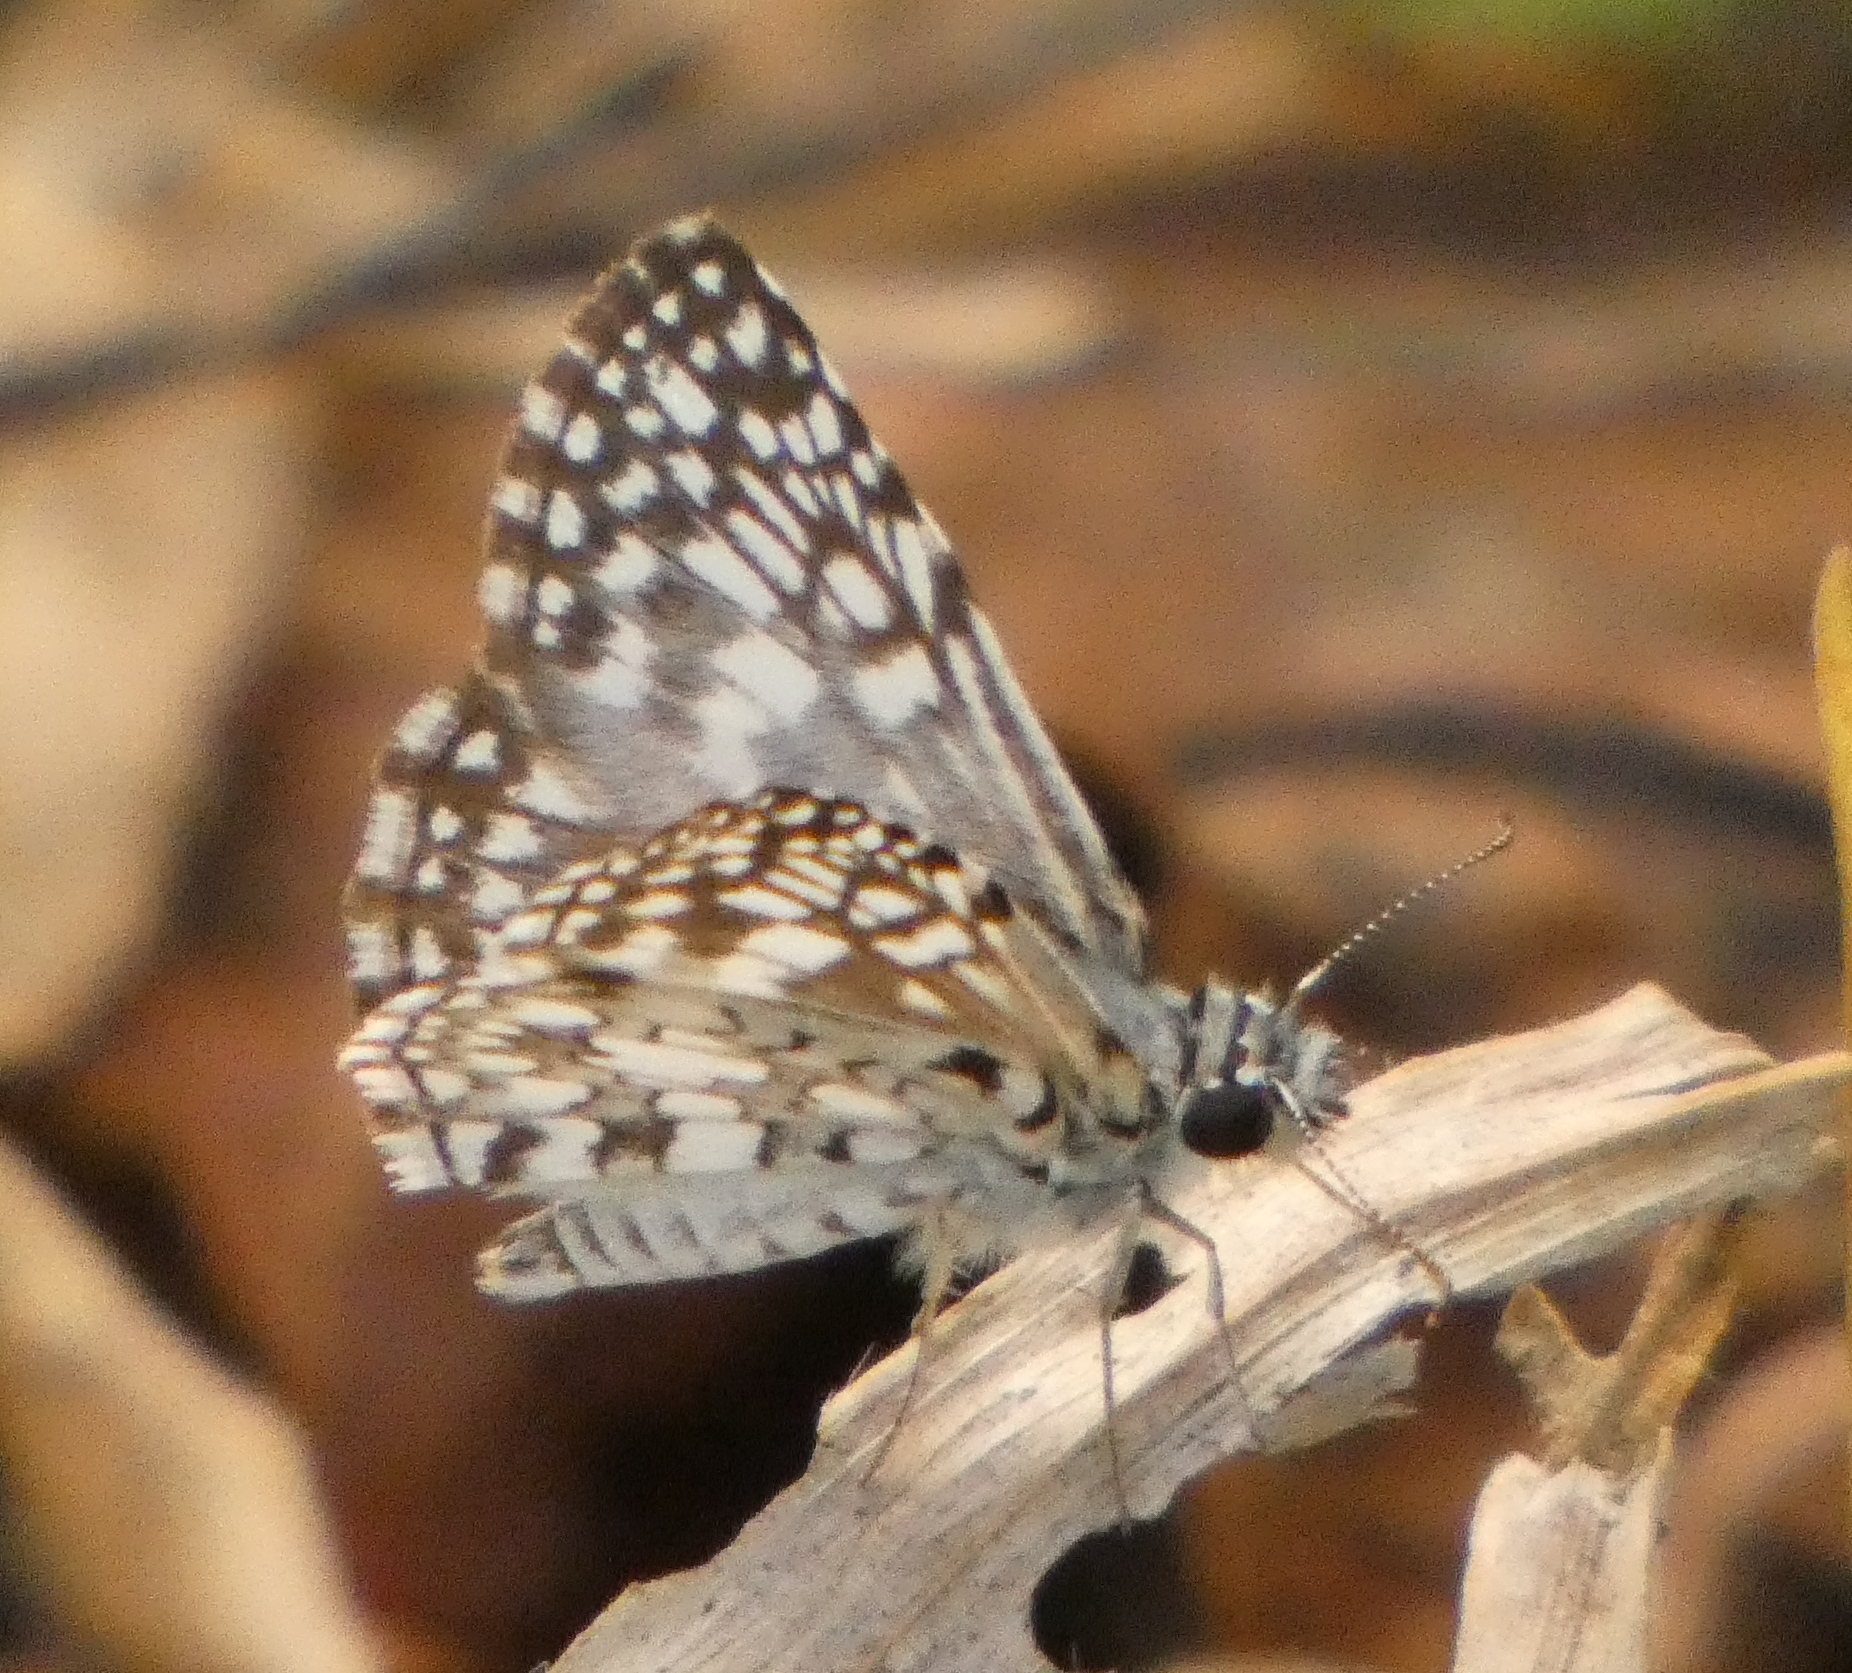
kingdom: Animalia
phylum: Arthropoda
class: Insecta
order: Lepidoptera
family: Hesperiidae
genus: Pyrgus
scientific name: Pyrgus oileus
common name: Tropical checkered-skipper
